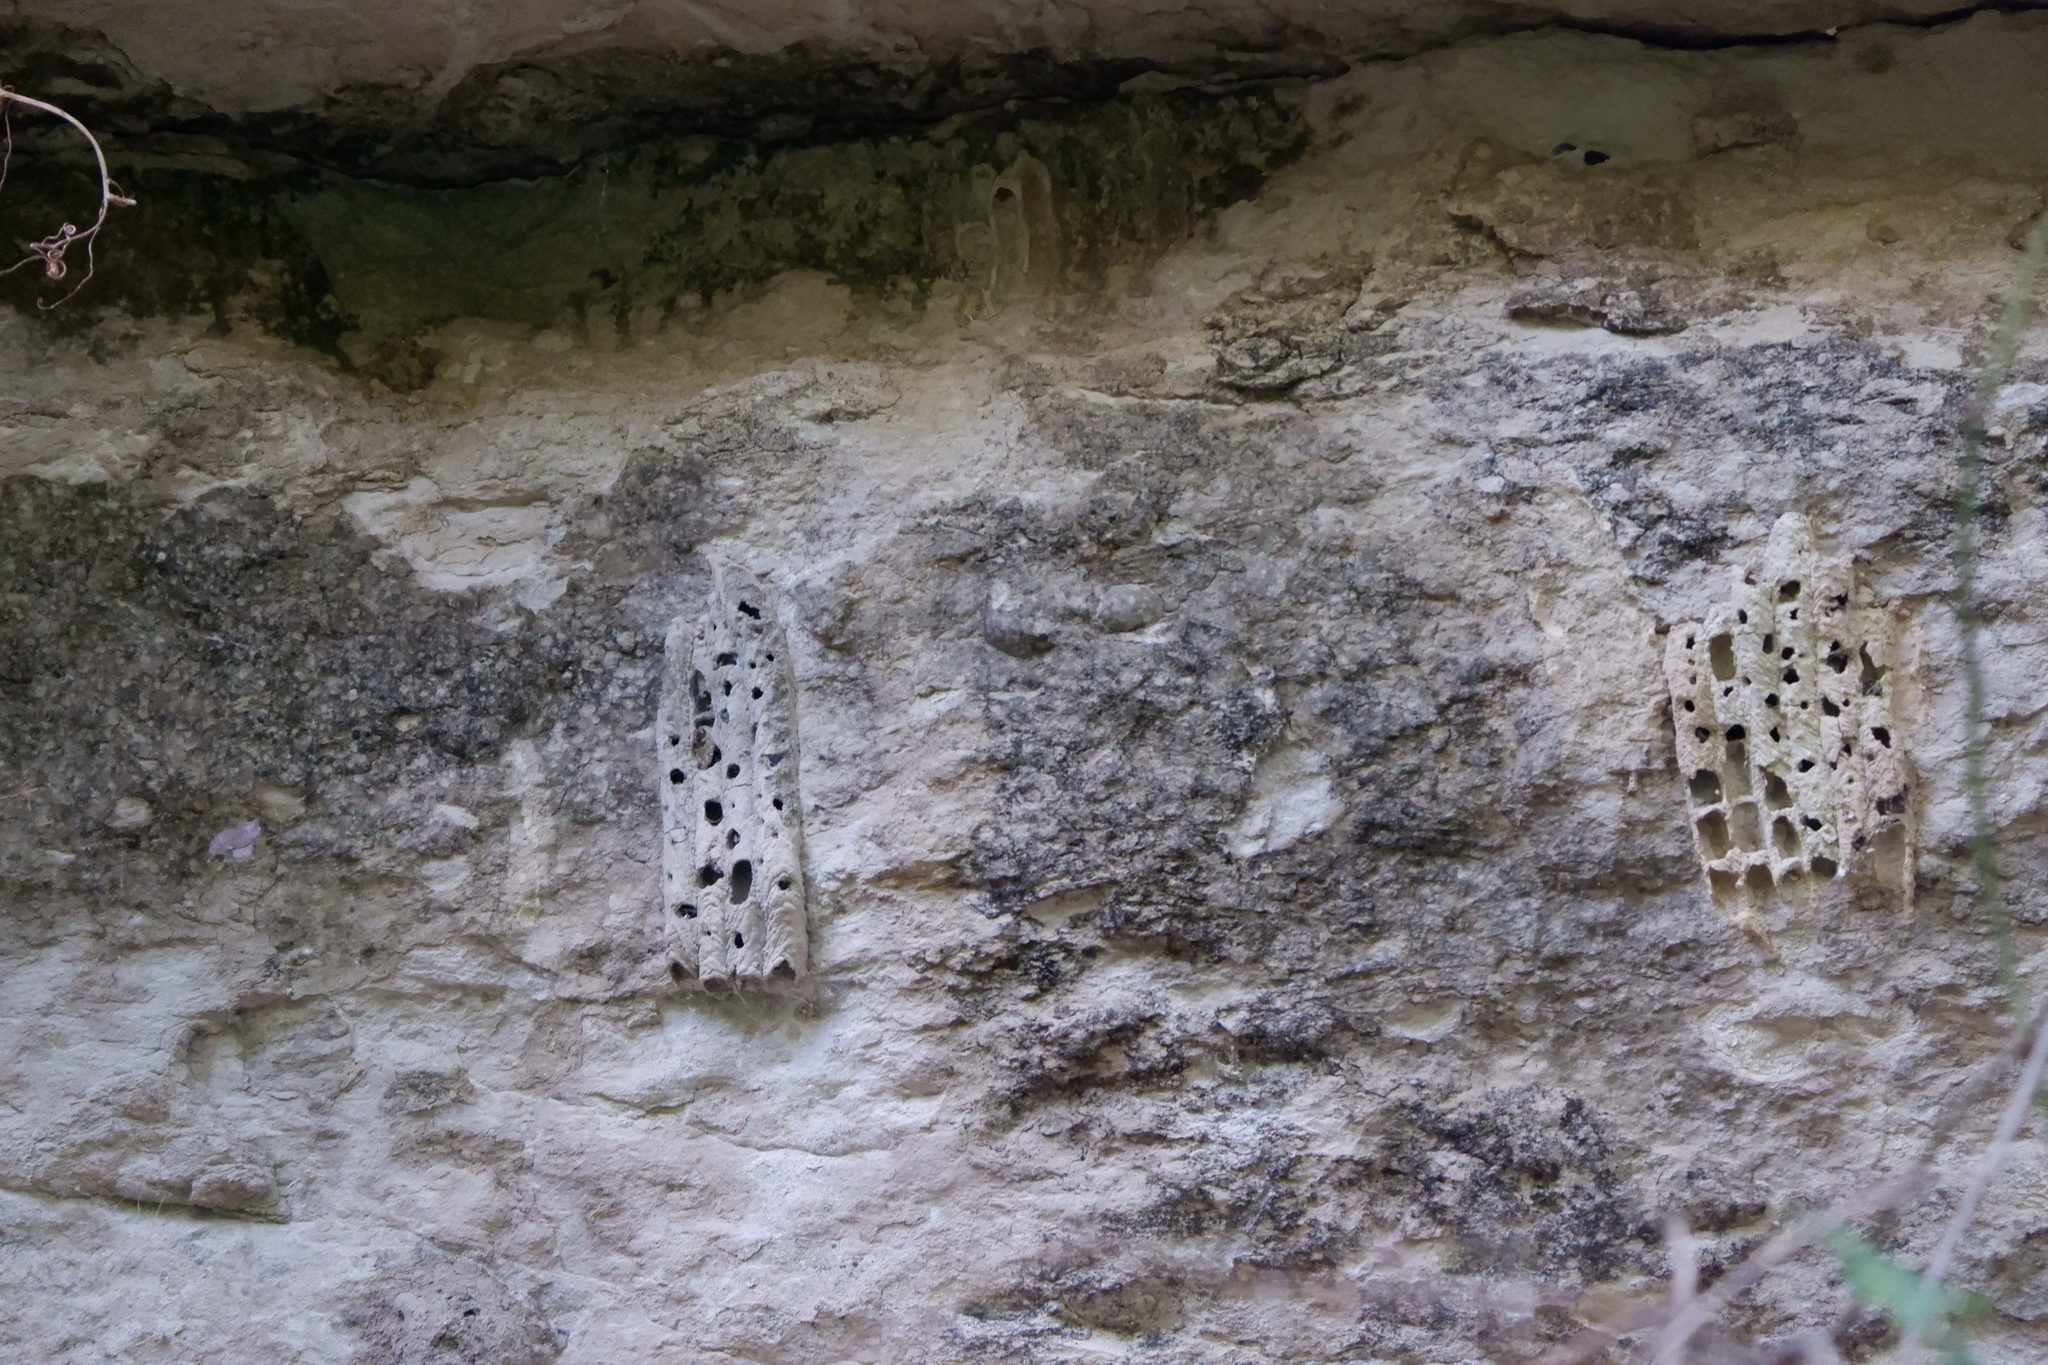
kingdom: Animalia
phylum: Arthropoda
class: Insecta
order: Hymenoptera
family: Crabronidae
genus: Trypoxylon
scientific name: Trypoxylon politum
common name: Organ-pipe mud-dauber wasp
